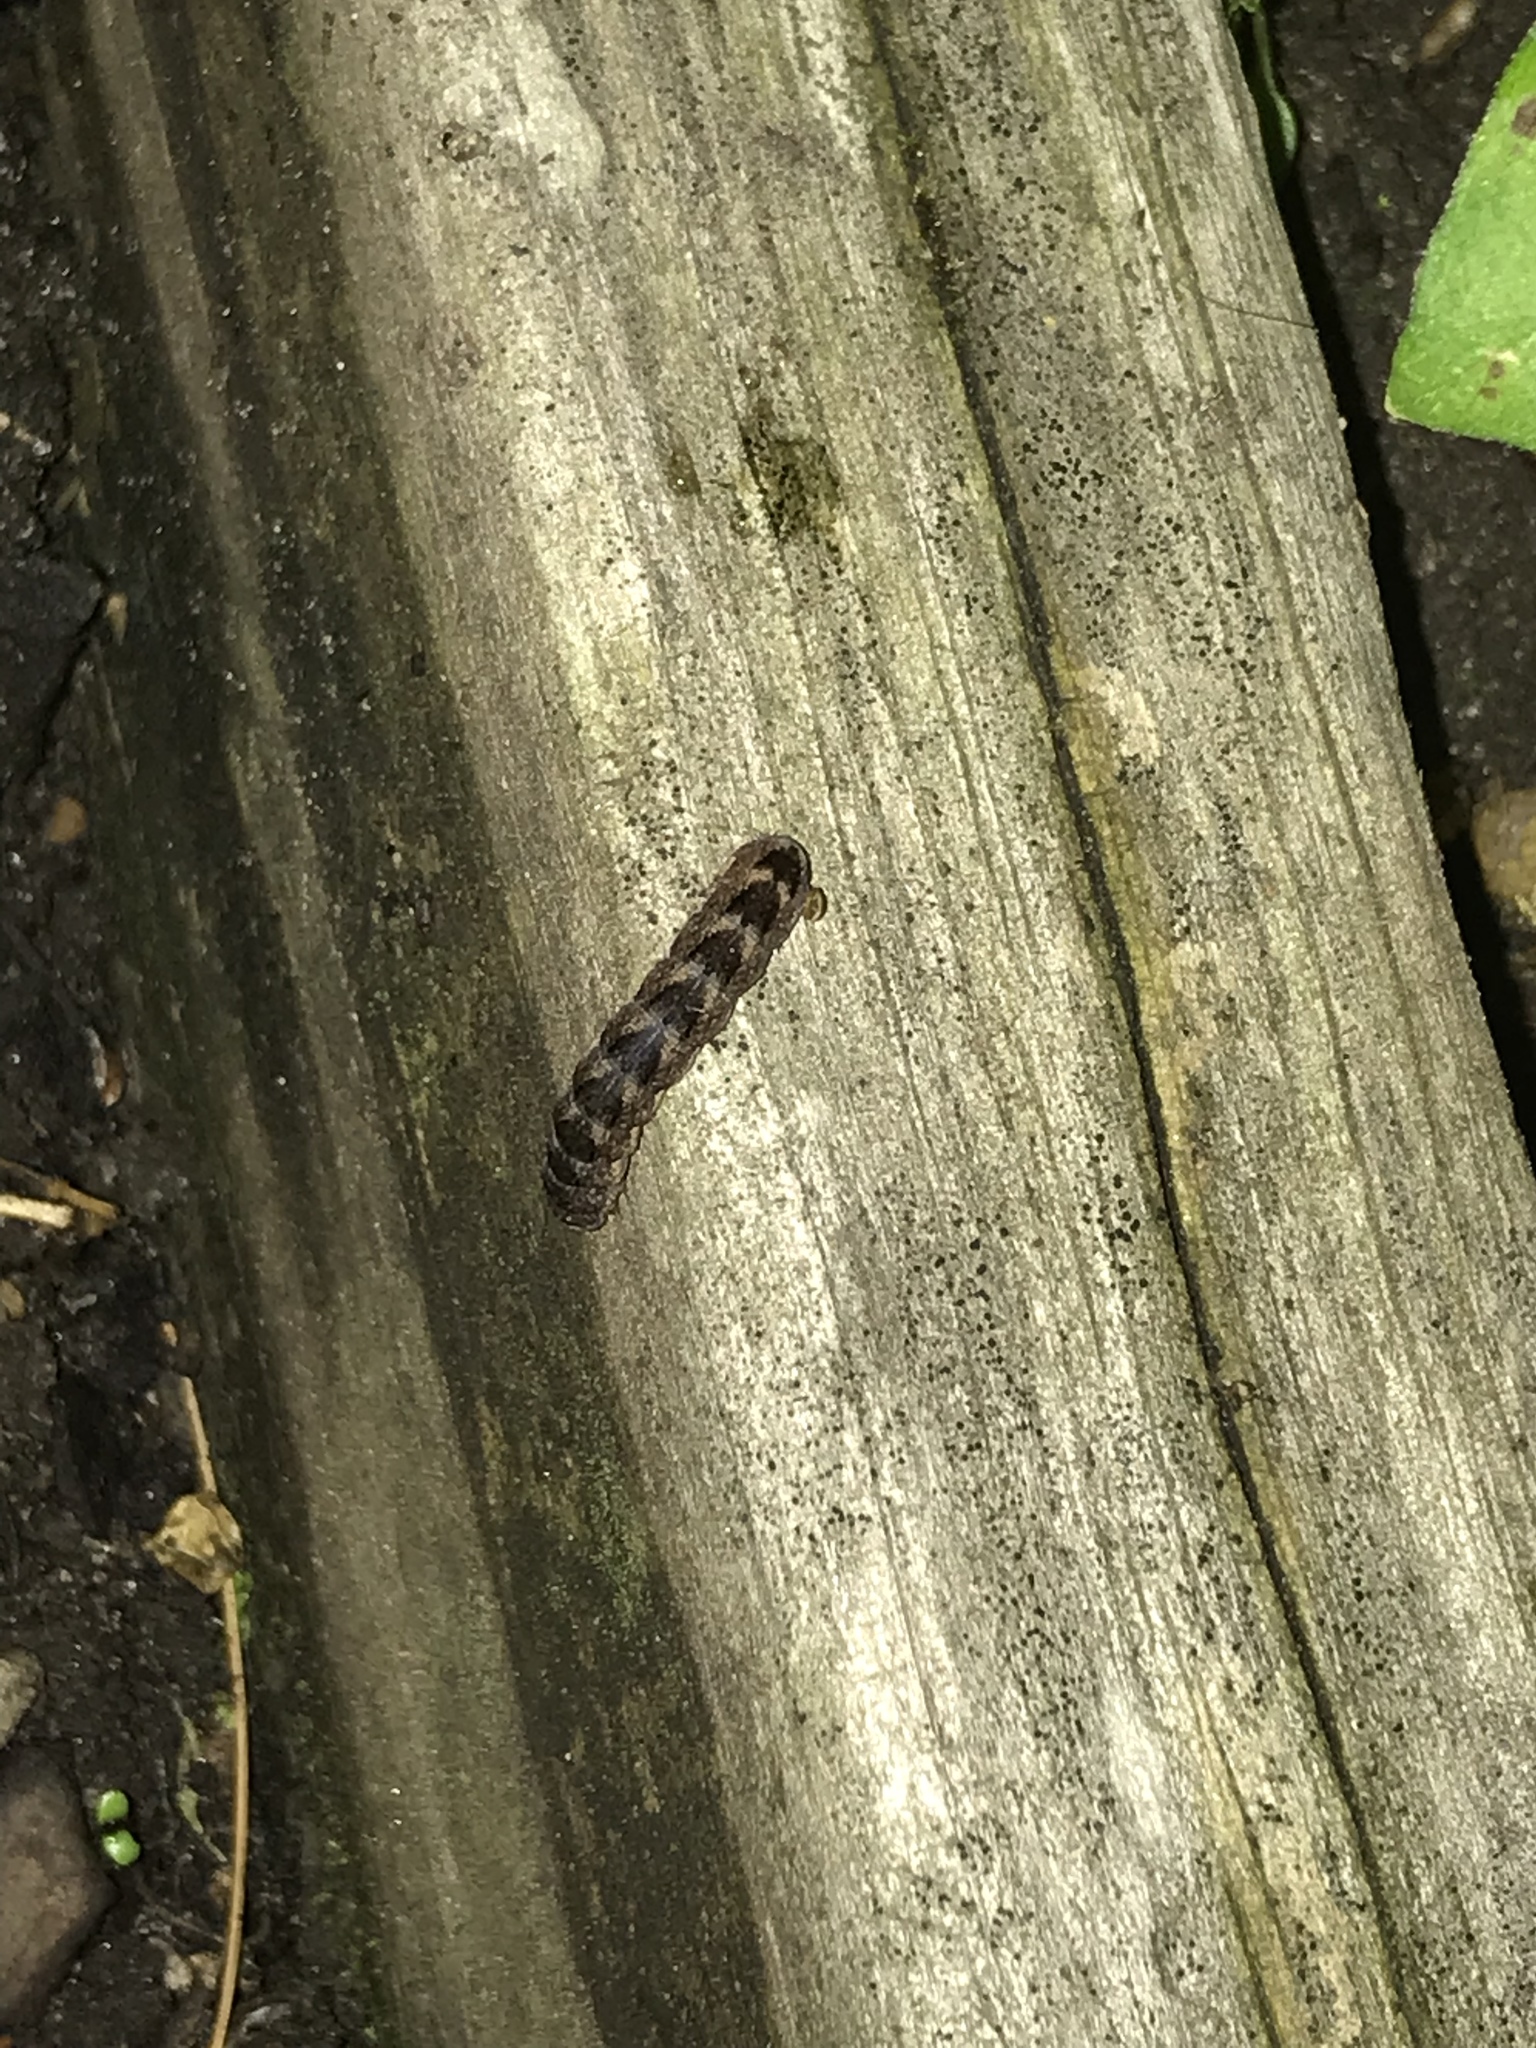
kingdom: Animalia
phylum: Arthropoda
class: Insecta
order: Lepidoptera
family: Noctuidae
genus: Agrochola
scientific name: Agrochola bicolorago
